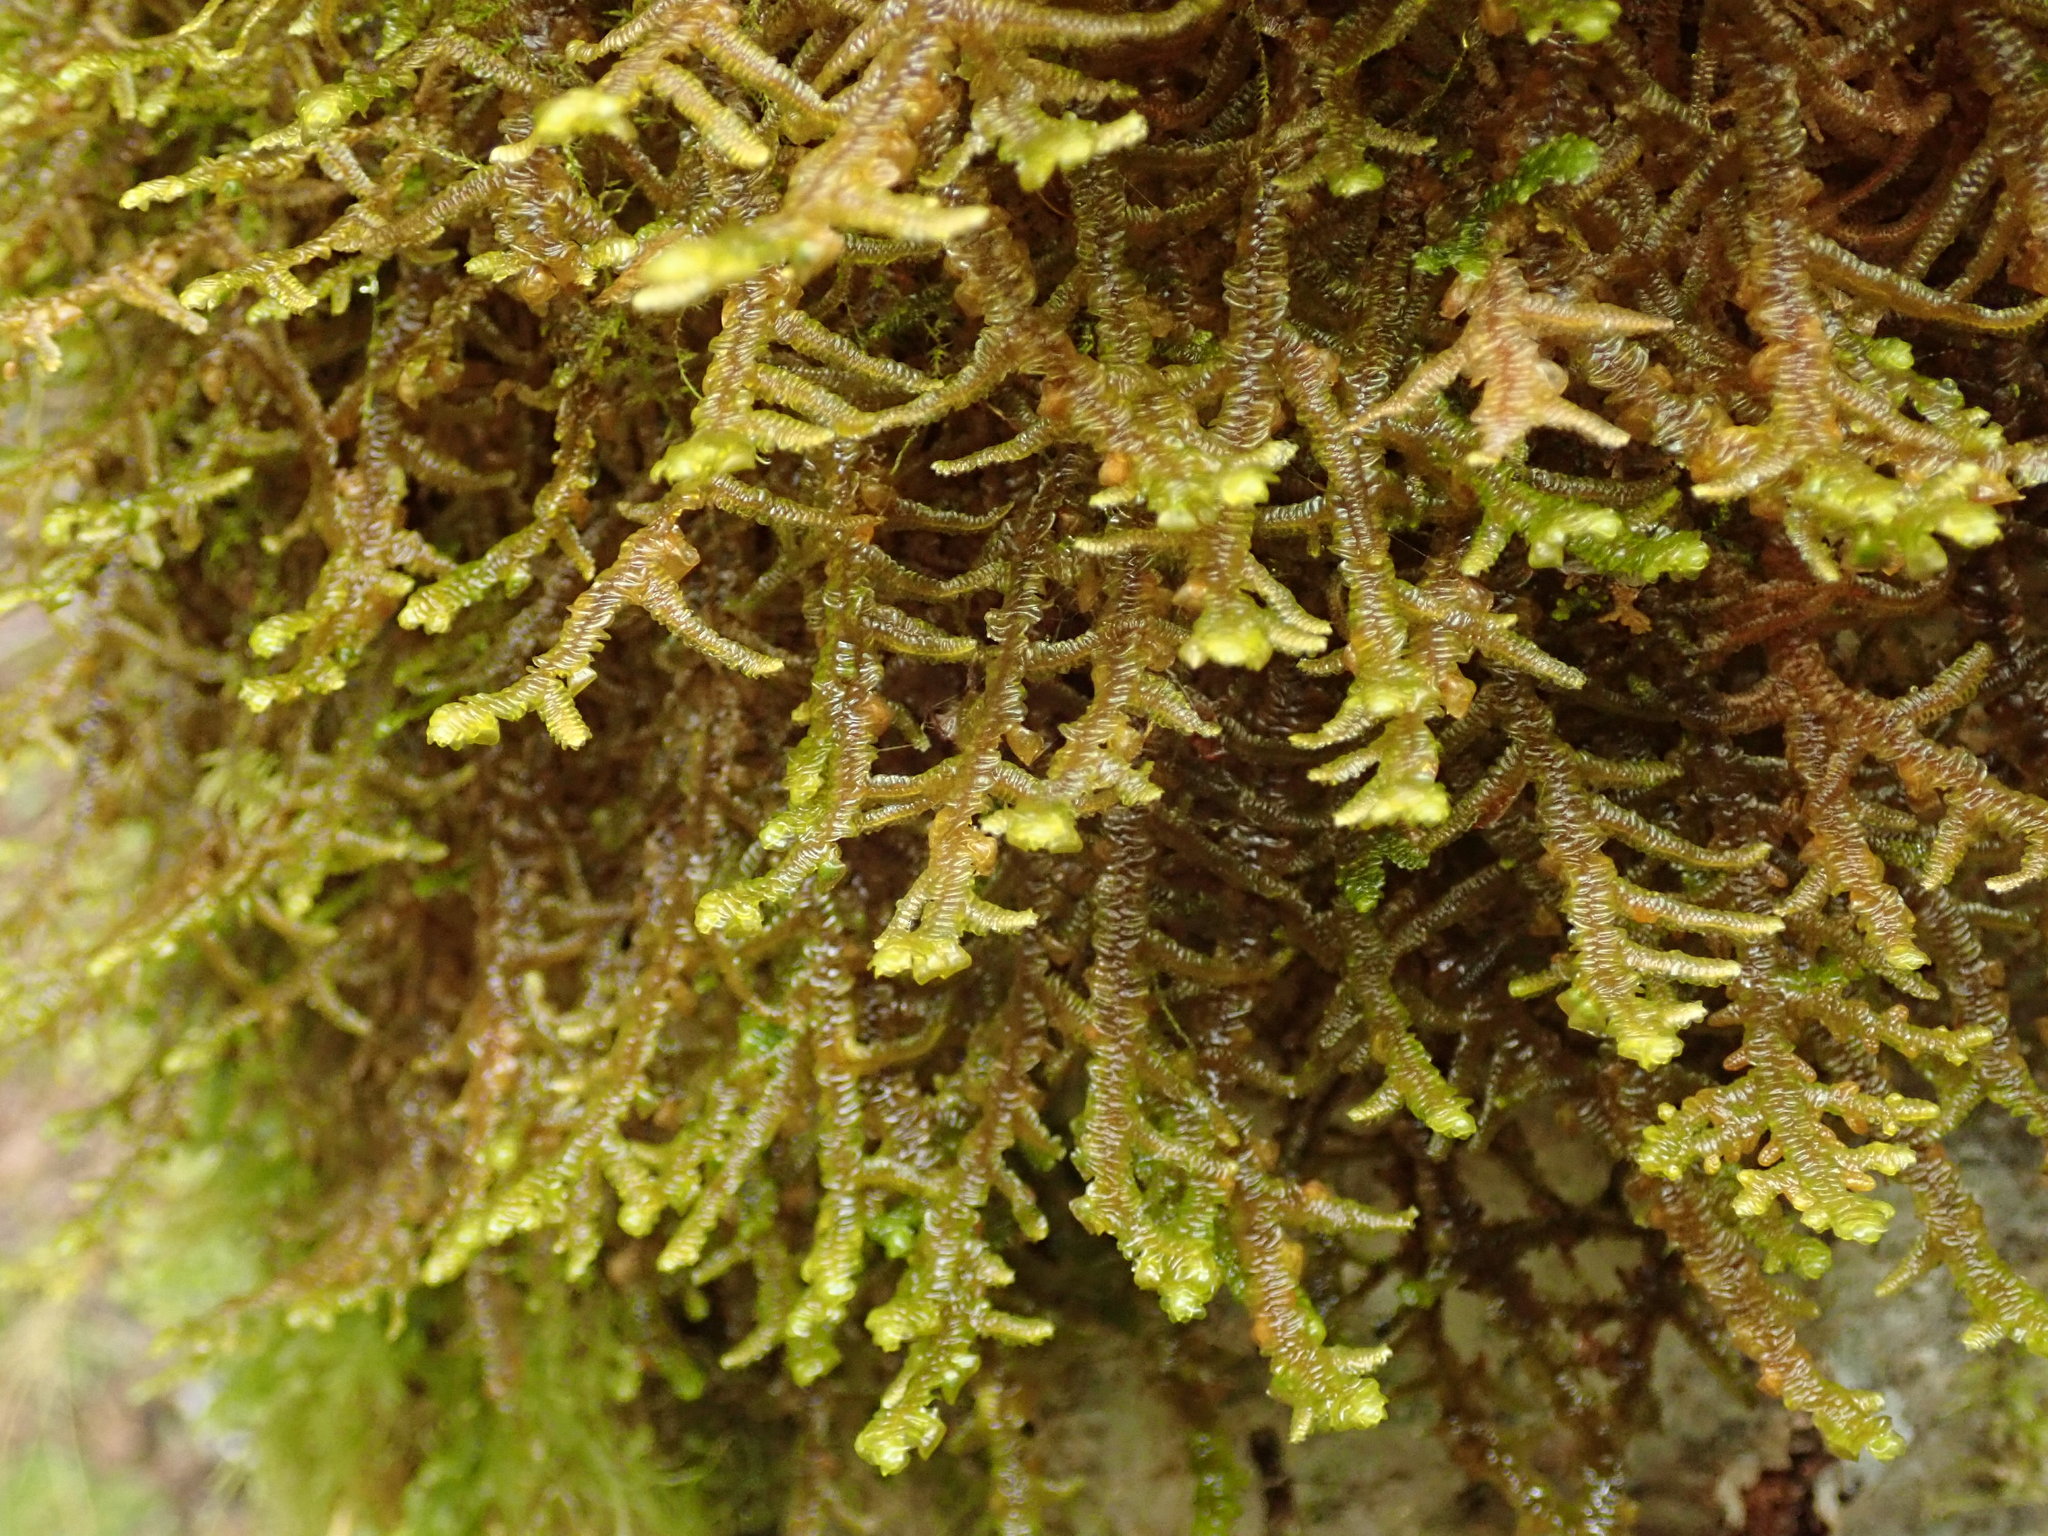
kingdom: Plantae
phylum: Marchantiophyta
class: Jungermanniopsida
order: Porellales
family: Porellaceae
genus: Porella
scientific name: Porella navicularis
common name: Tree ruffle liverwort
